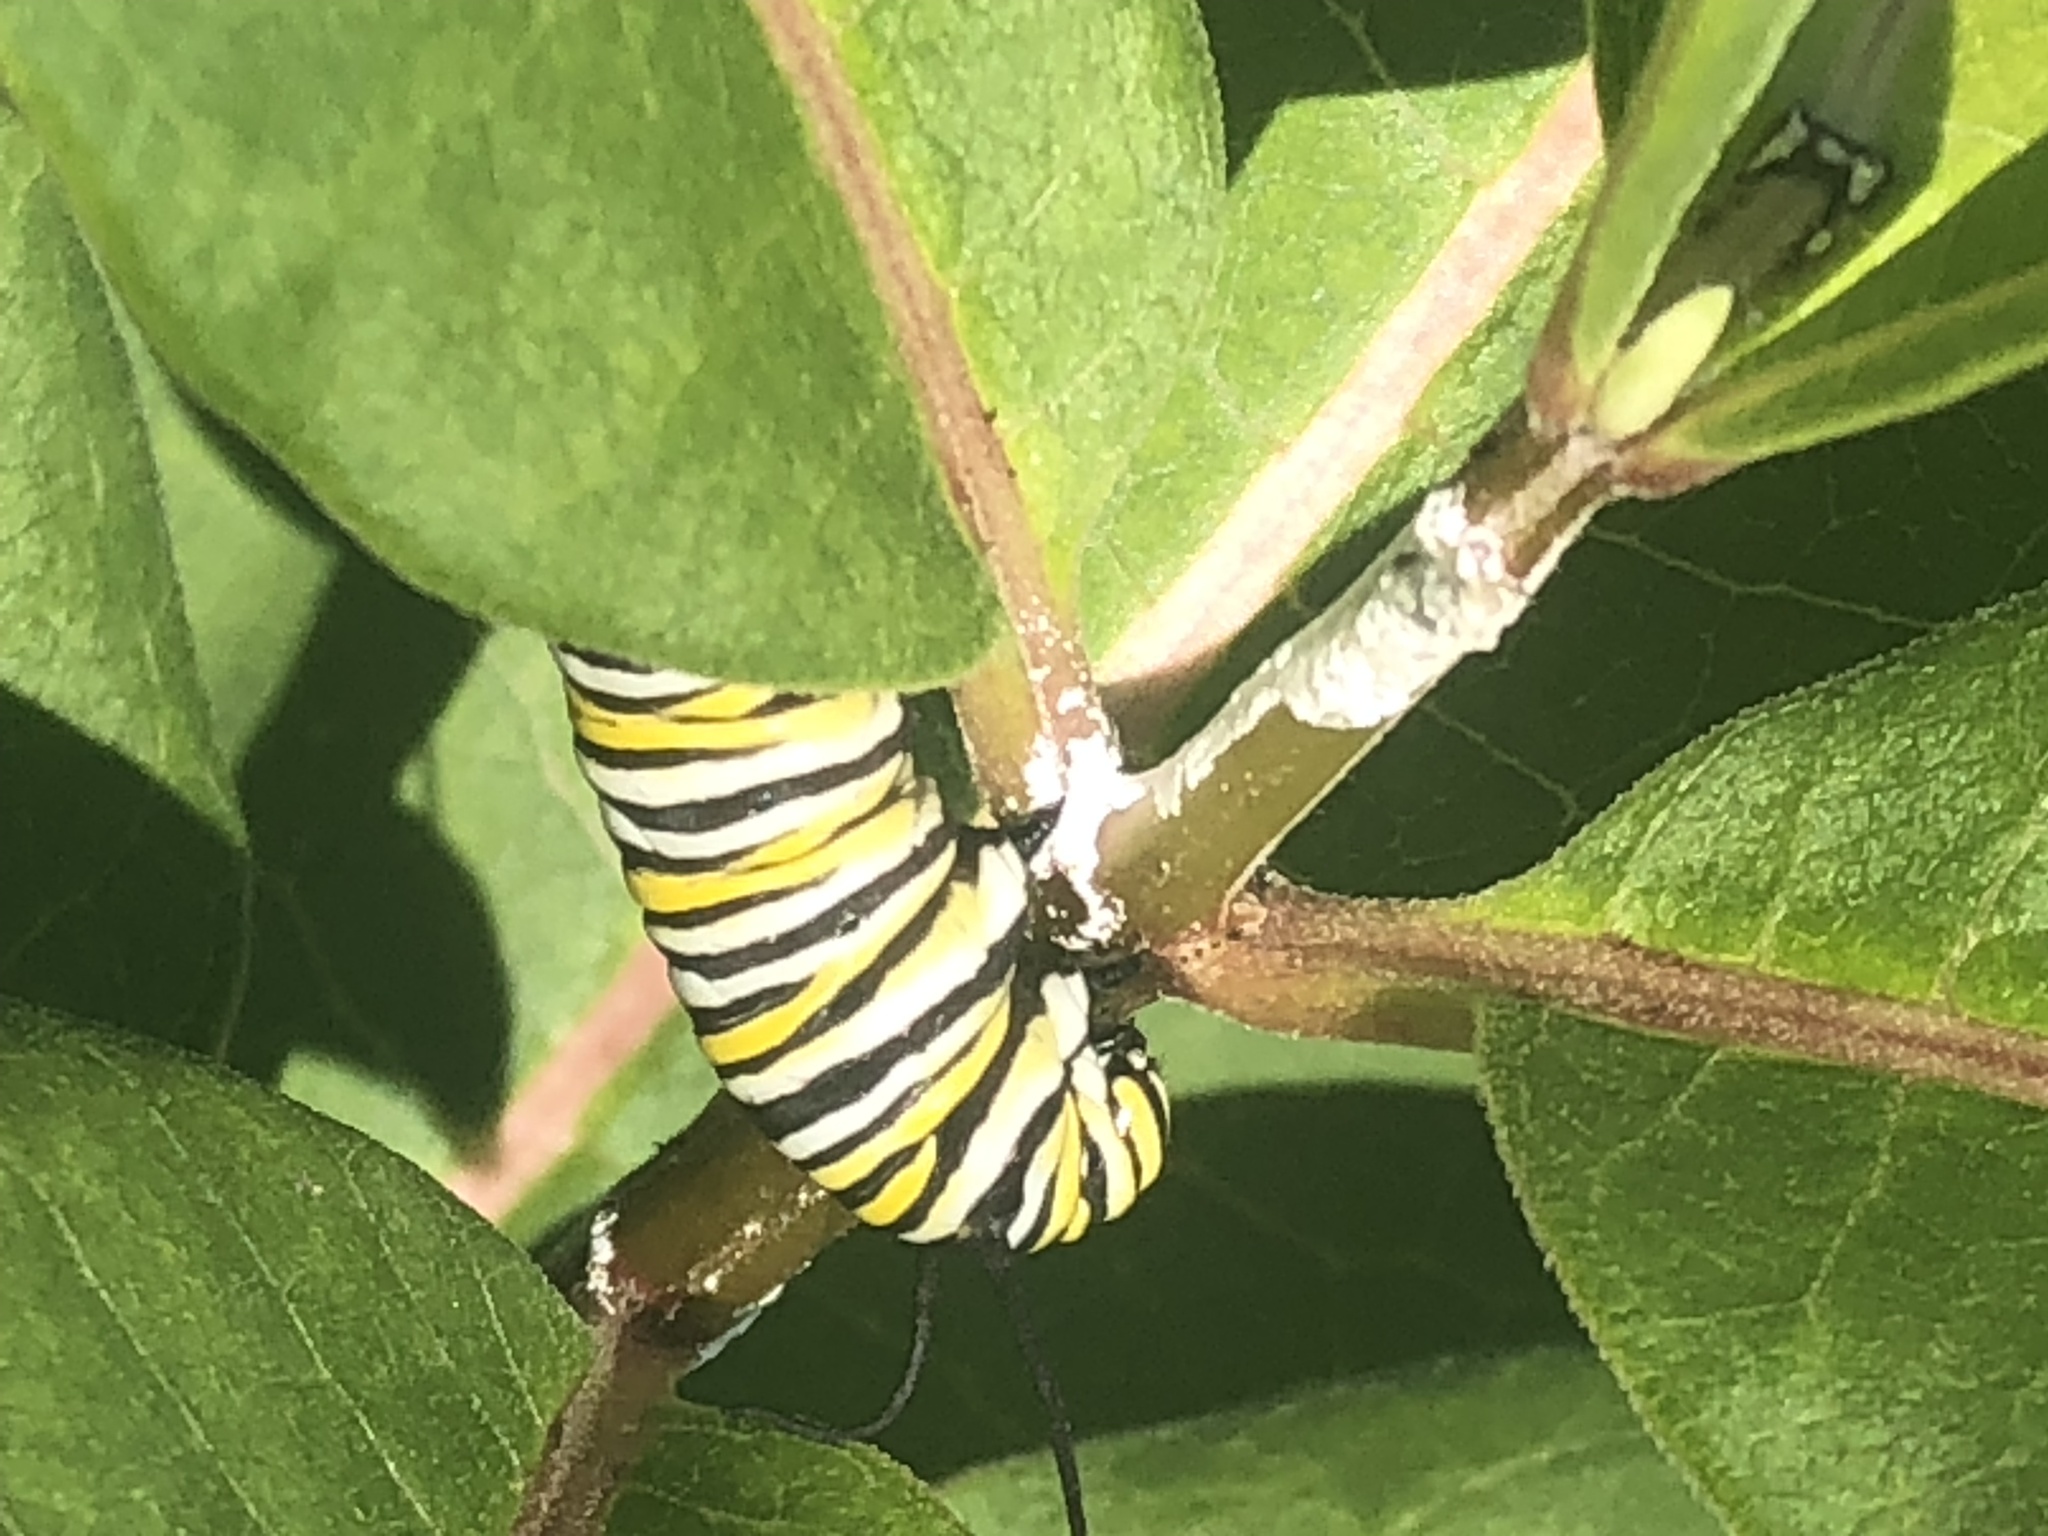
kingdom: Animalia
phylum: Arthropoda
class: Insecta
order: Lepidoptera
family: Nymphalidae
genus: Danaus
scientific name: Danaus plexippus
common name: Monarch
